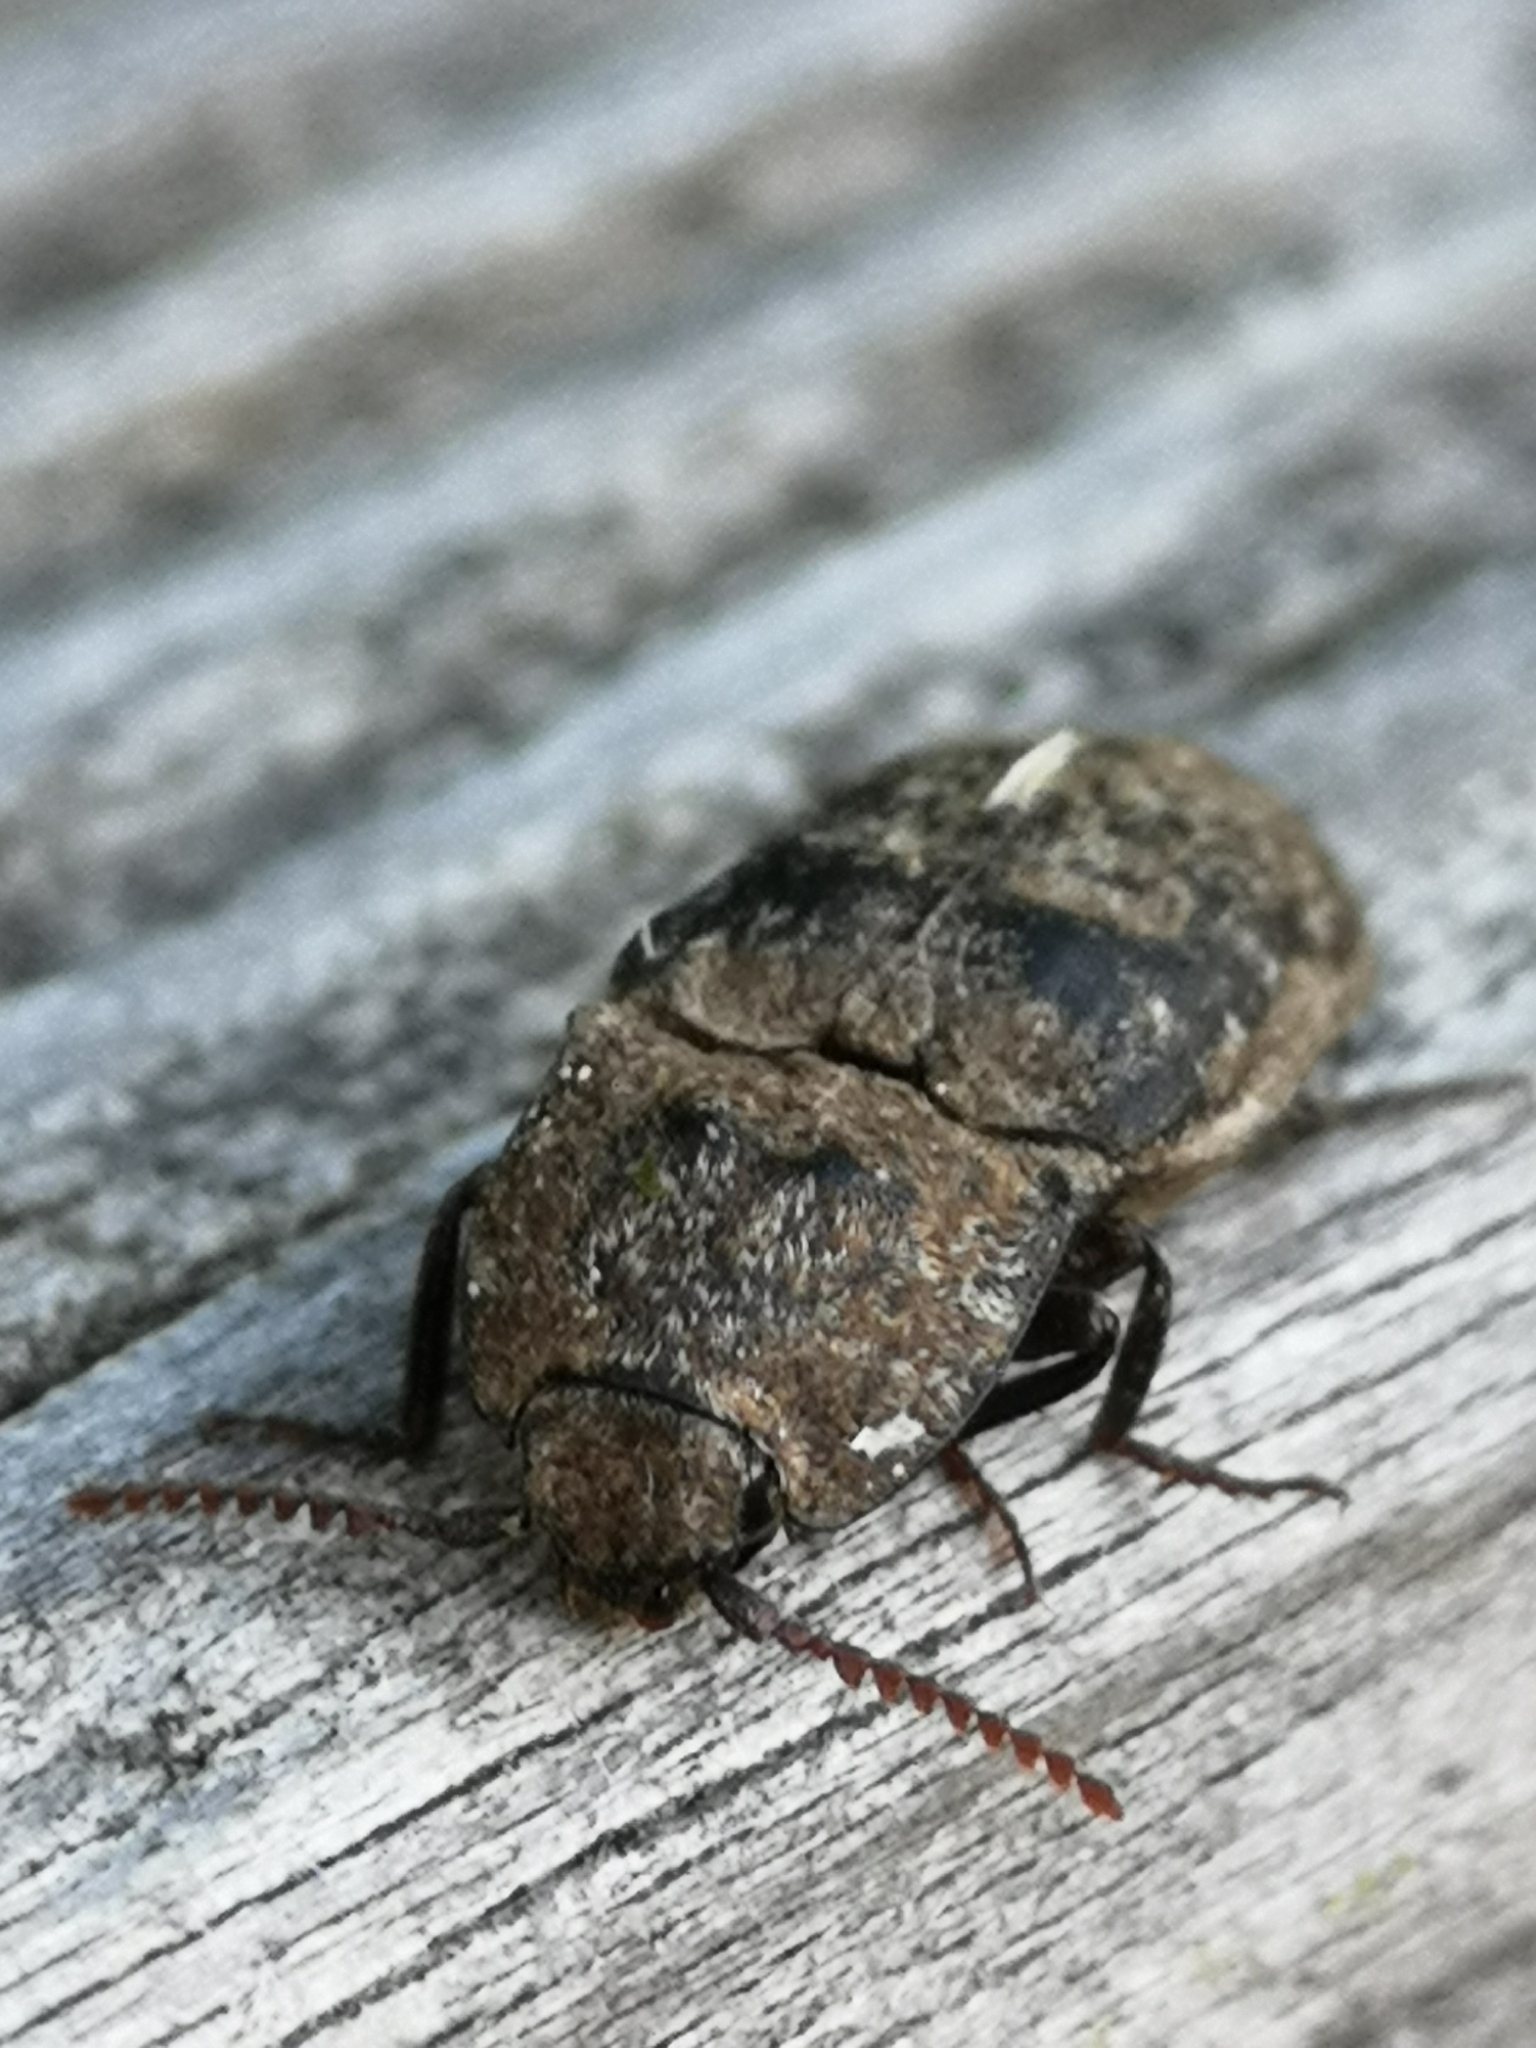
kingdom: Animalia
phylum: Arthropoda
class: Insecta
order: Coleoptera
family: Elateridae
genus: Agrypnus
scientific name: Agrypnus murinus
